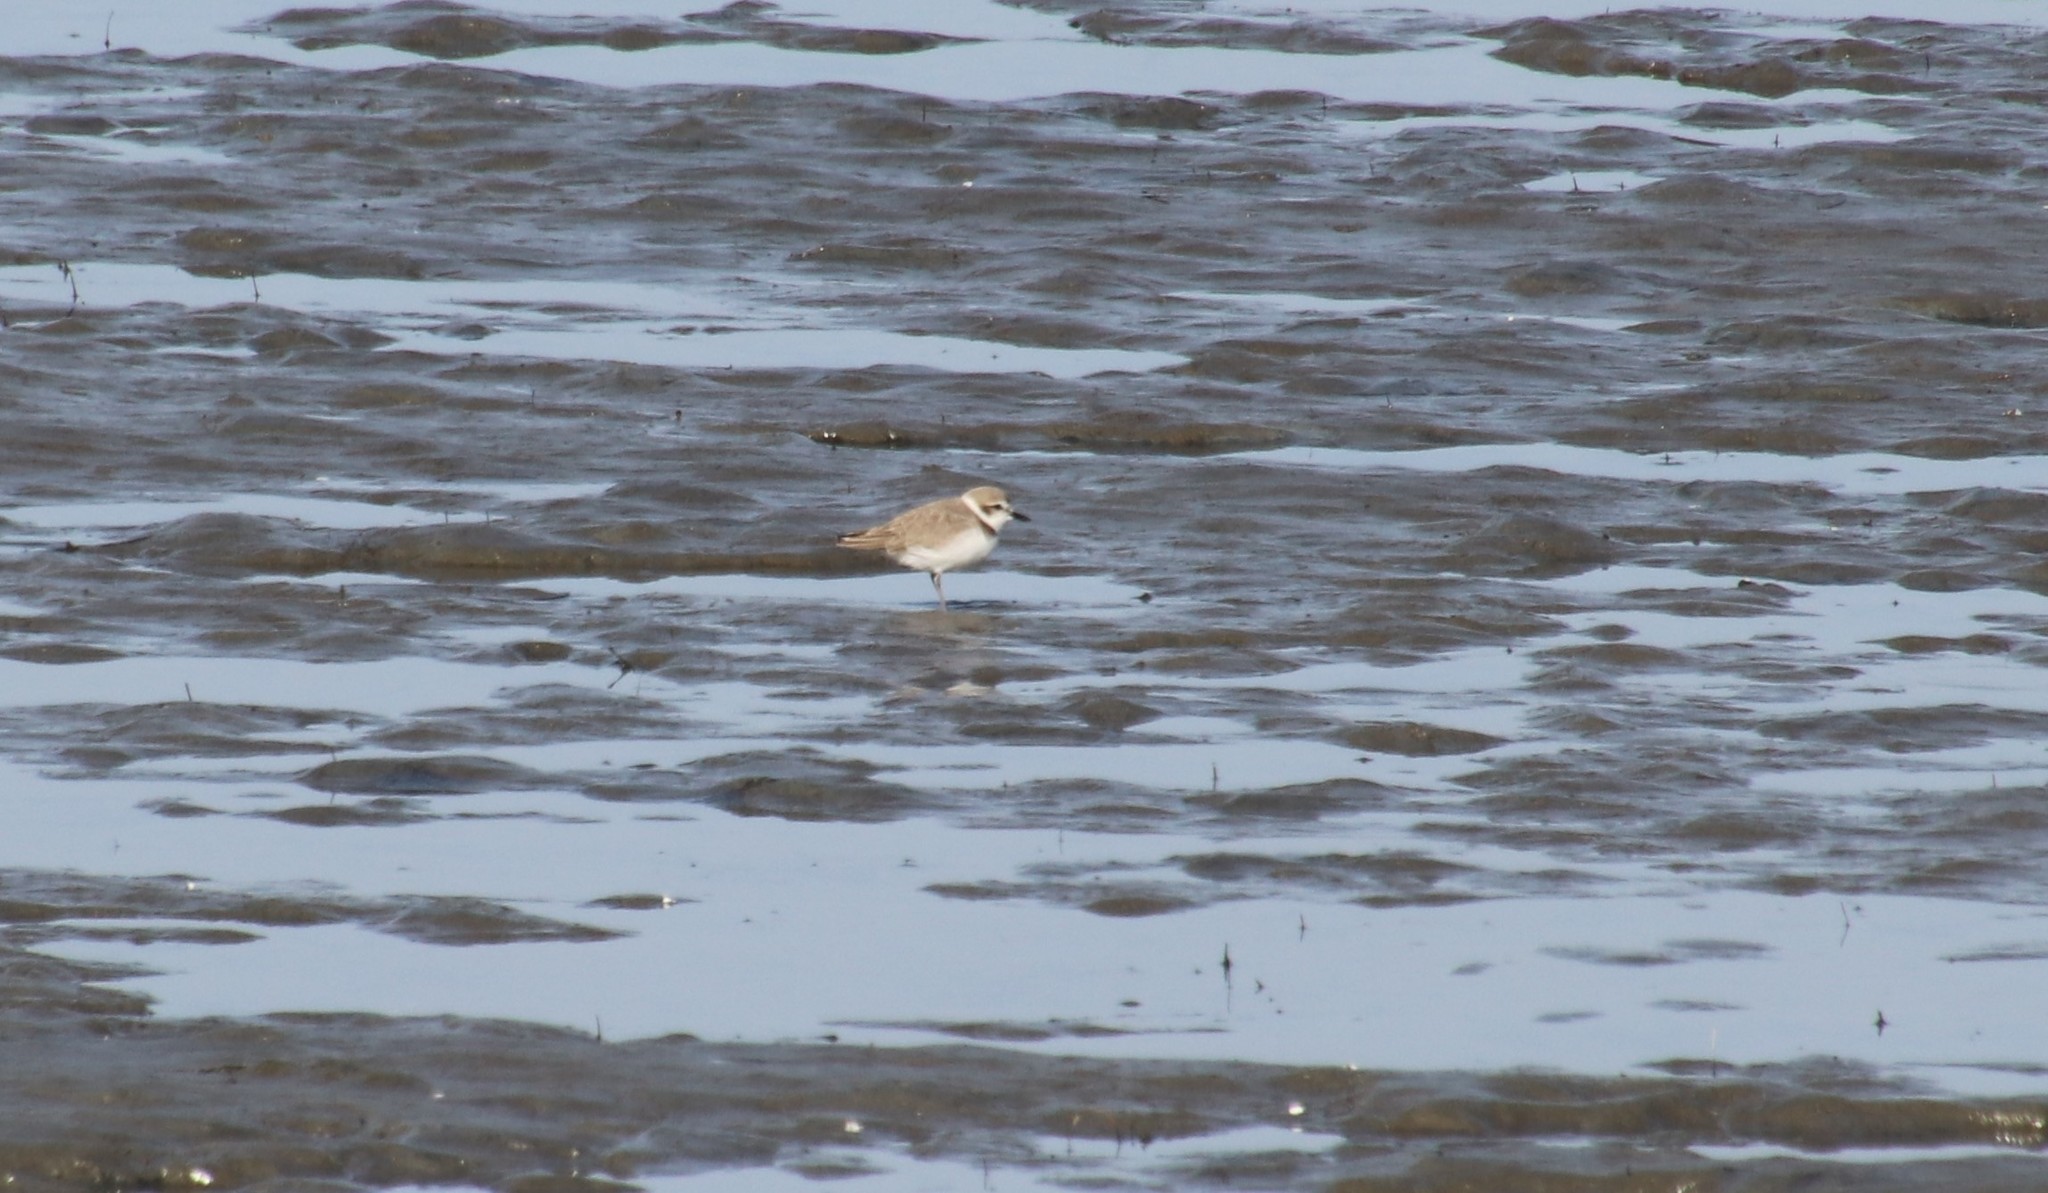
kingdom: Animalia
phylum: Chordata
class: Aves
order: Charadriiformes
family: Charadriidae
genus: Anarhynchus
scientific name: Anarhynchus
